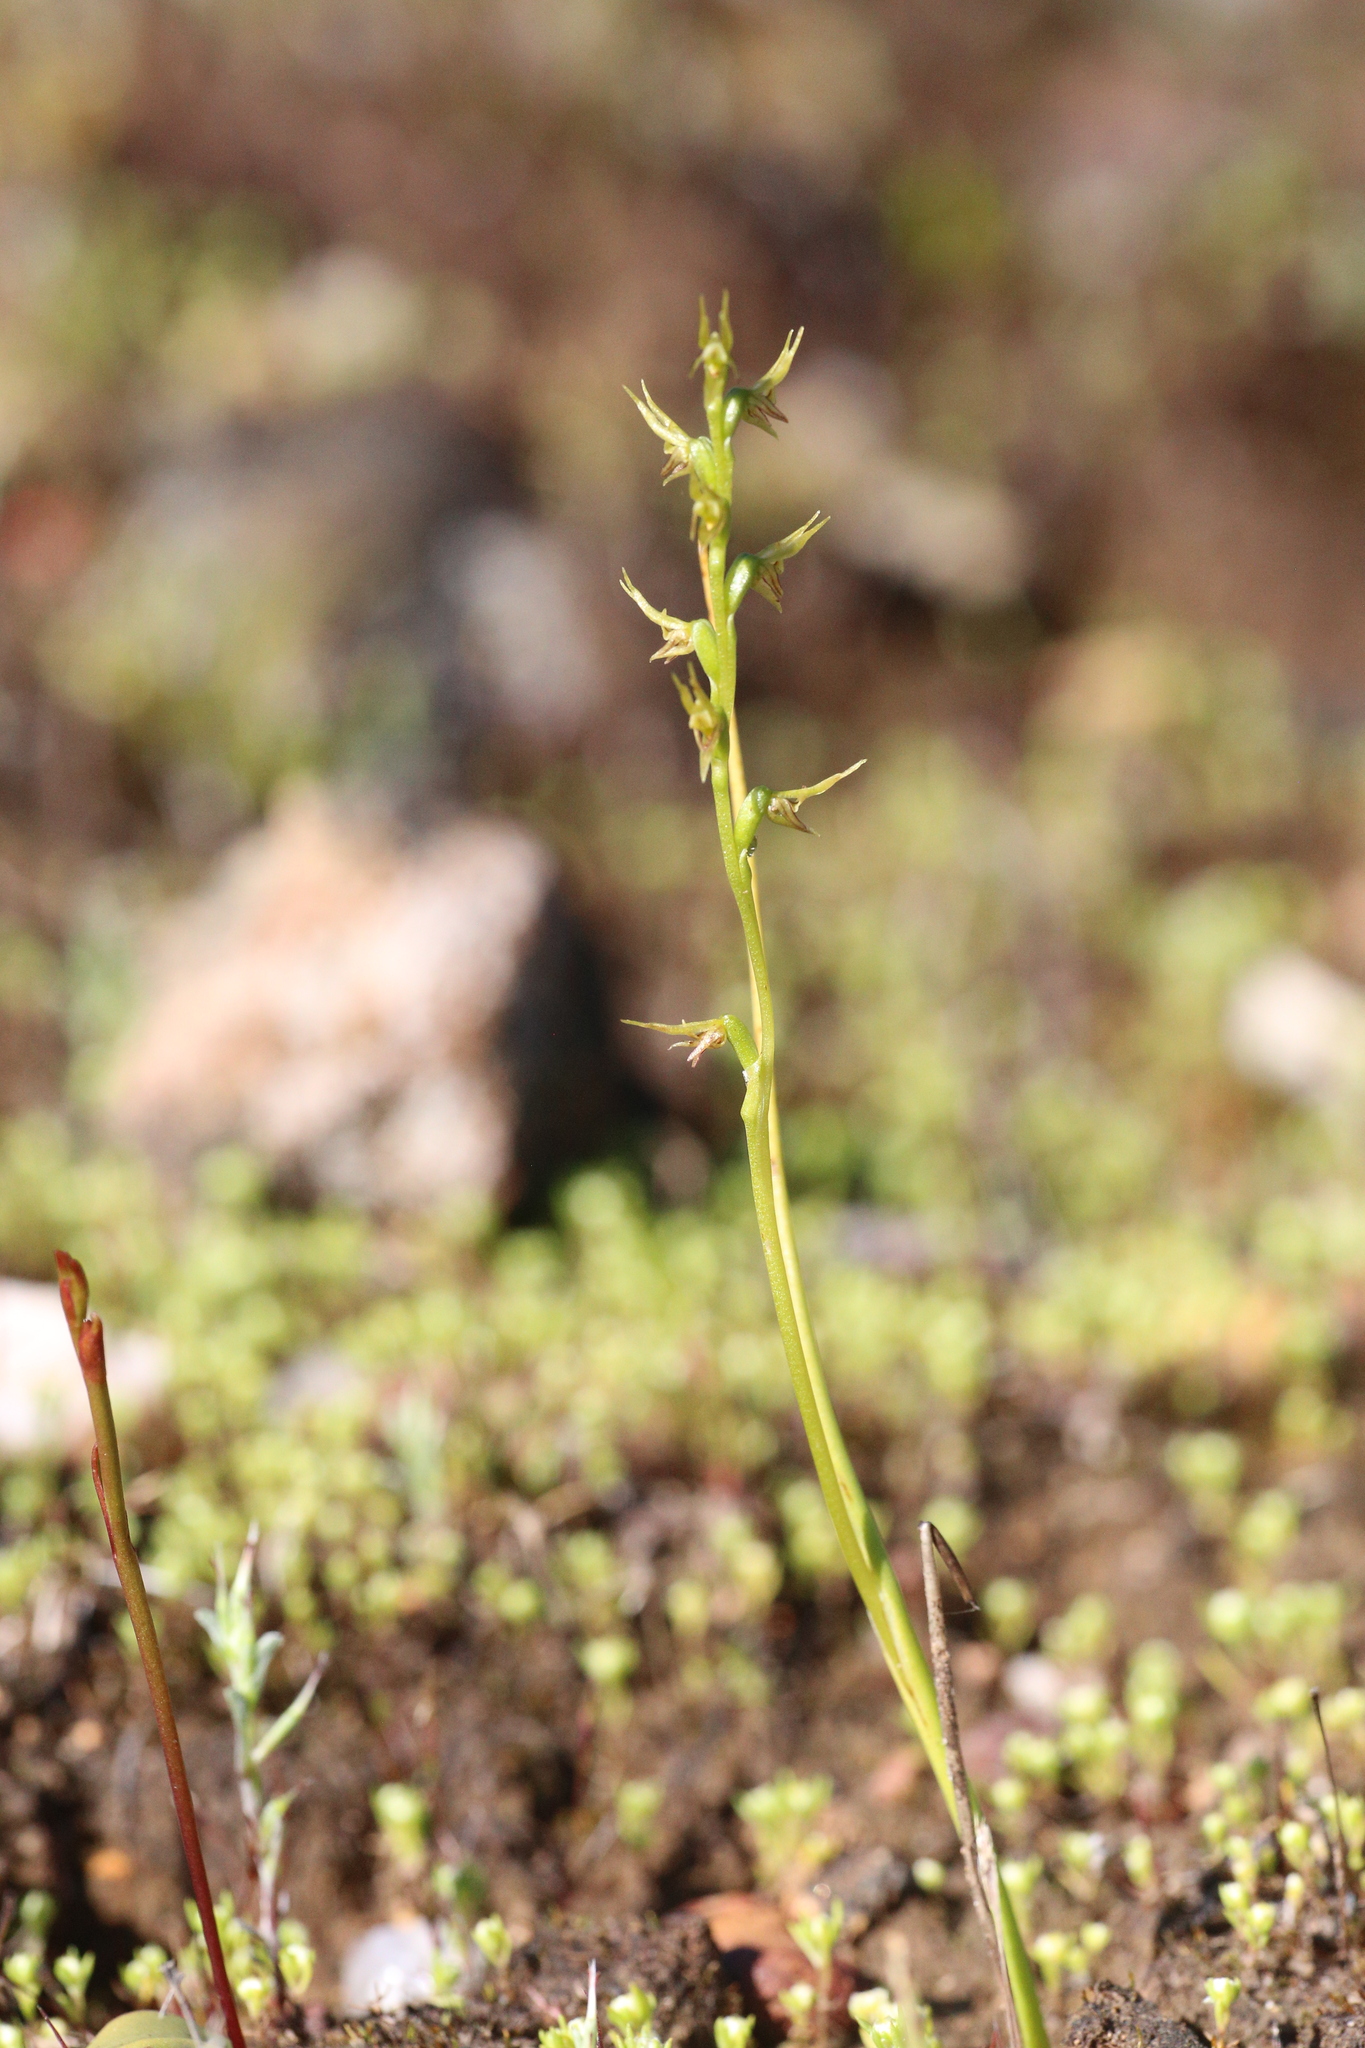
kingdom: Plantae
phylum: Tracheophyta
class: Liliopsida
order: Asparagales
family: Orchidaceae
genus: Prasophyllum
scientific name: Prasophyllum gracile
